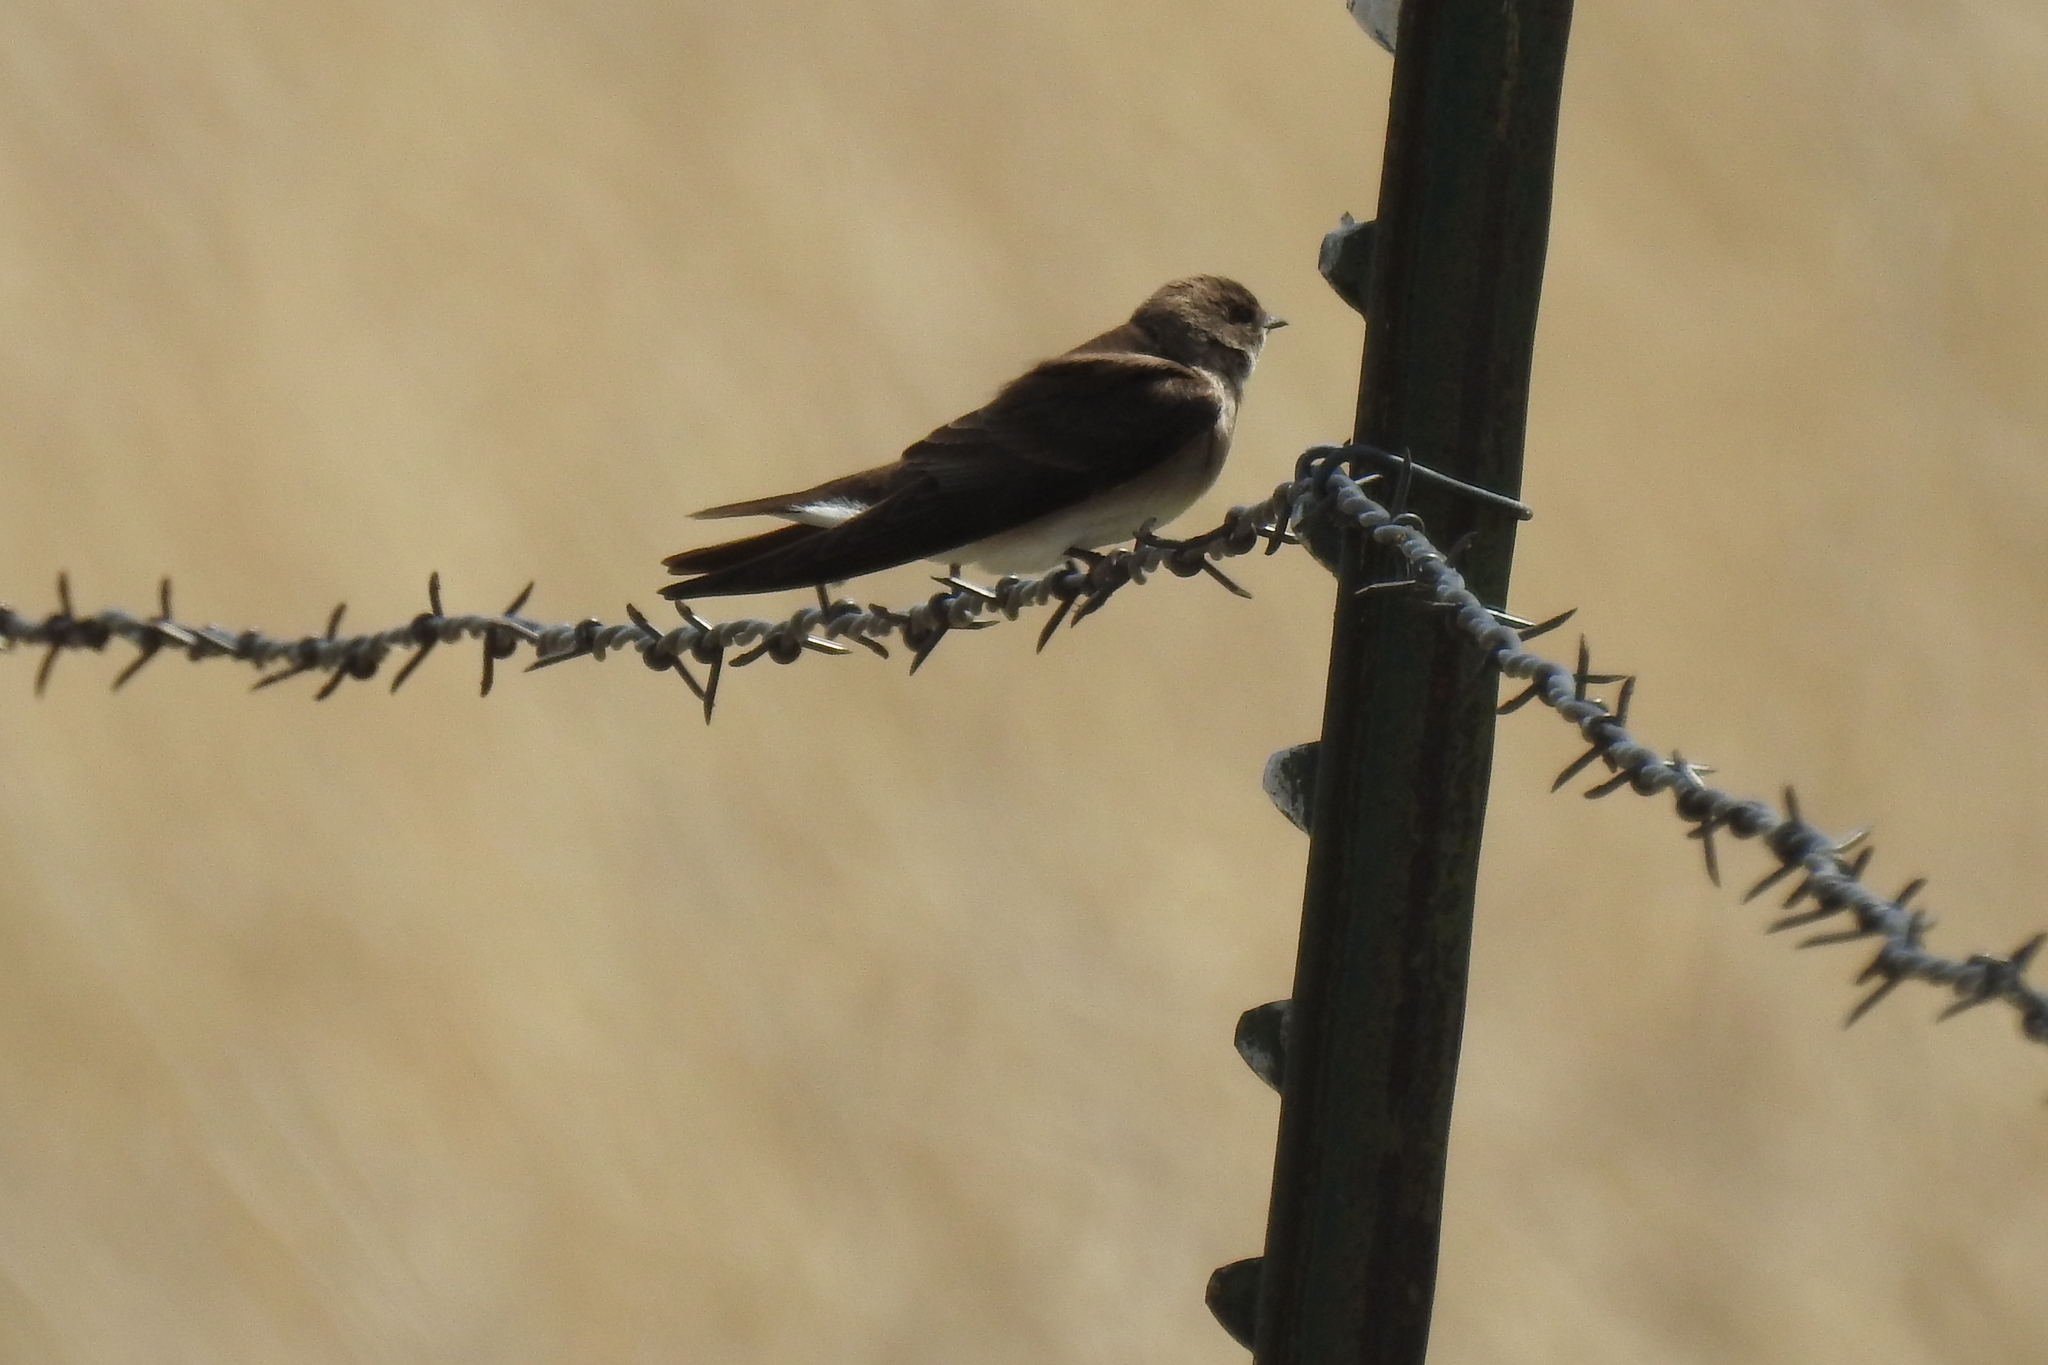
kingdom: Animalia
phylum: Chordata
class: Aves
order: Passeriformes
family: Hirundinidae
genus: Stelgidopteryx
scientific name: Stelgidopteryx serripennis
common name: Northern rough-winged swallow
